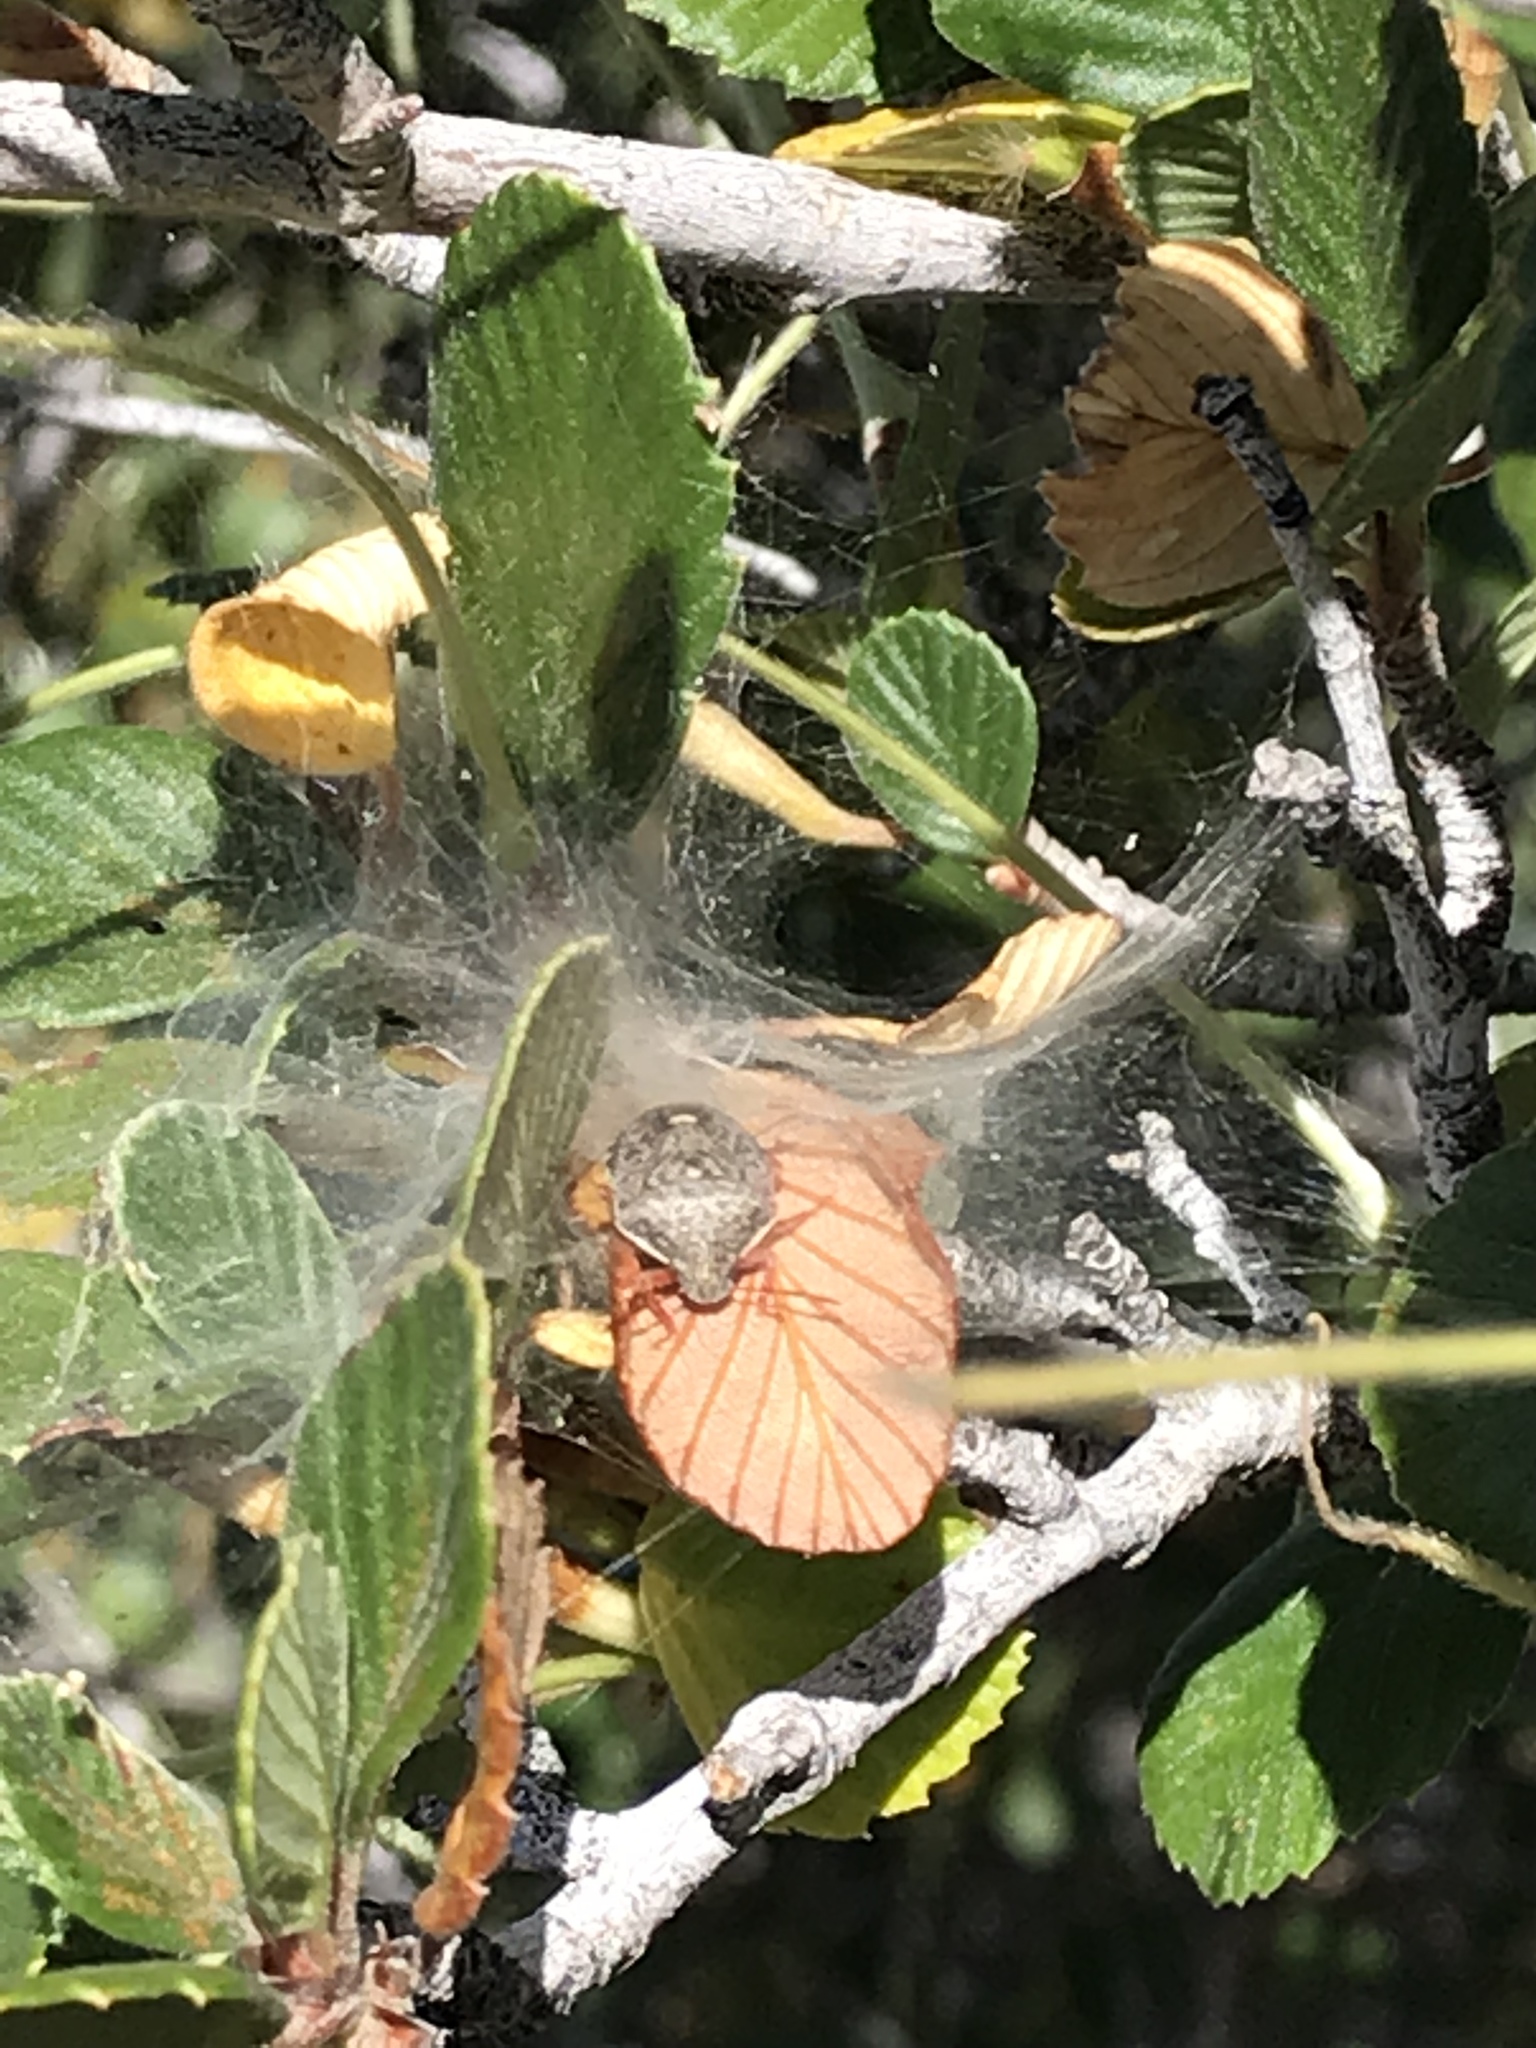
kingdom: Animalia
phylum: Arthropoda
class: Insecta
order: Hemiptera
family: Pentatomidae
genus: Holcostethus
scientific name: Holcostethus abbreviatus
